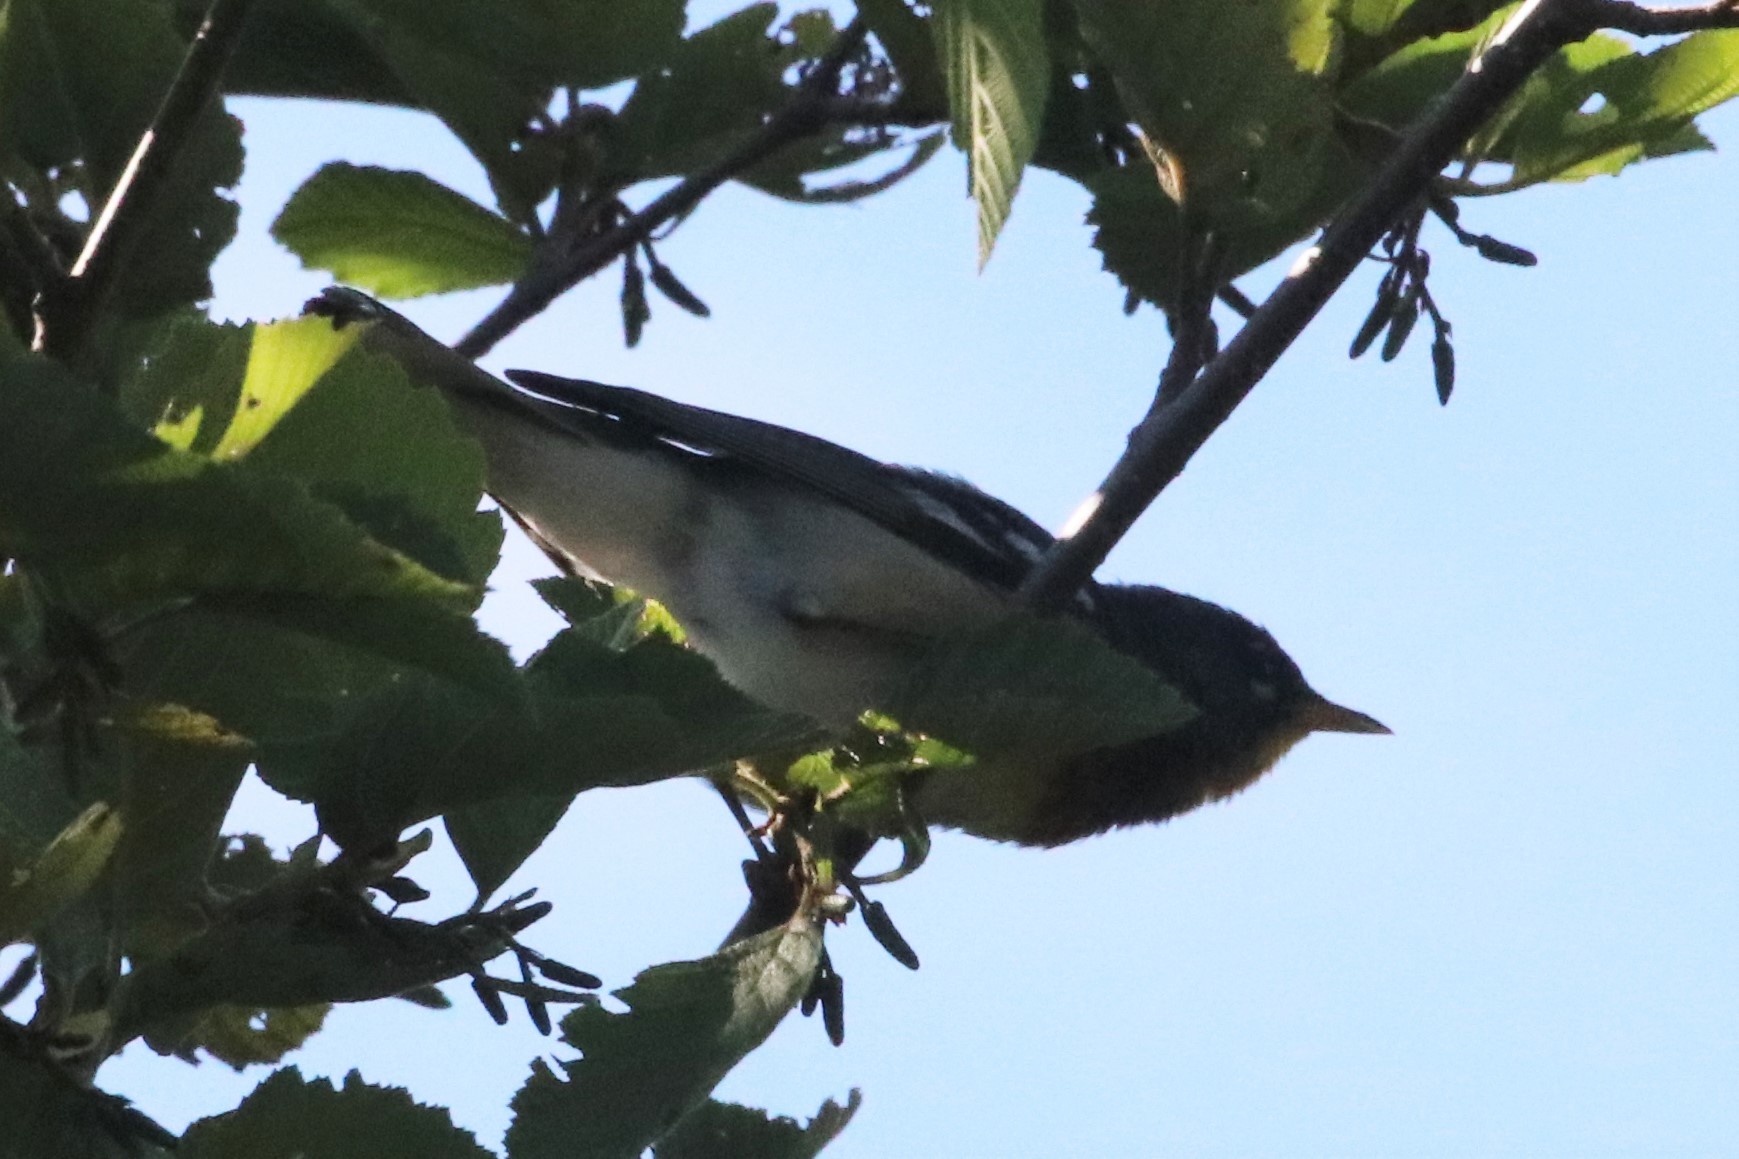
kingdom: Animalia
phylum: Chordata
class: Aves
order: Passeriformes
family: Parulidae
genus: Setophaga
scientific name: Setophaga americana
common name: Northern parula
